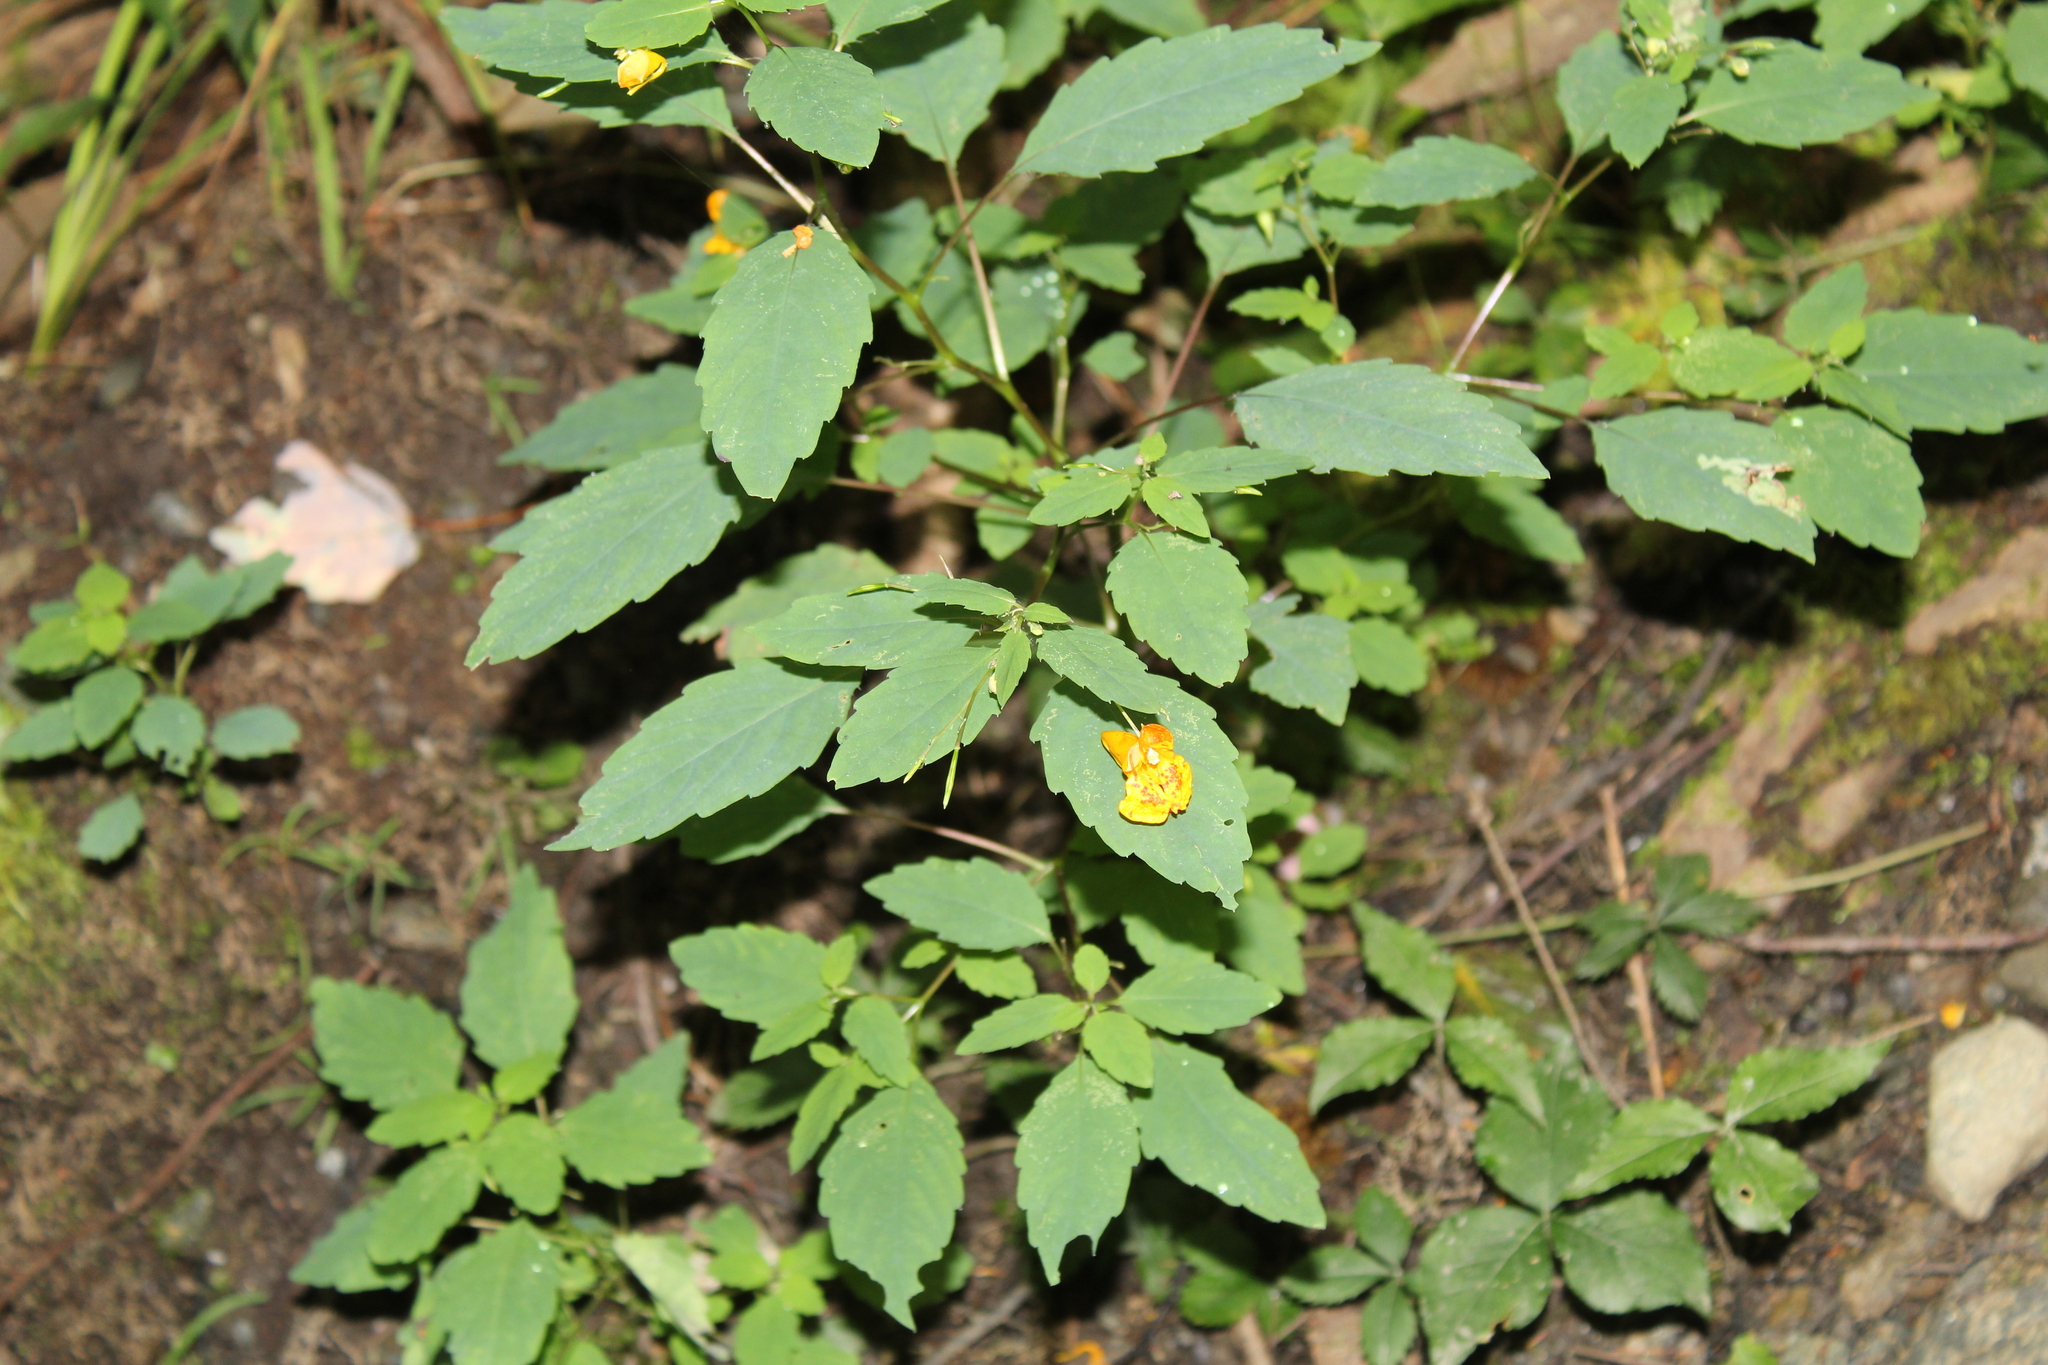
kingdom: Plantae
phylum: Tracheophyta
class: Magnoliopsida
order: Ericales
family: Balsaminaceae
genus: Impatiens
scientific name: Impatiens capensis
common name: Orange balsam
